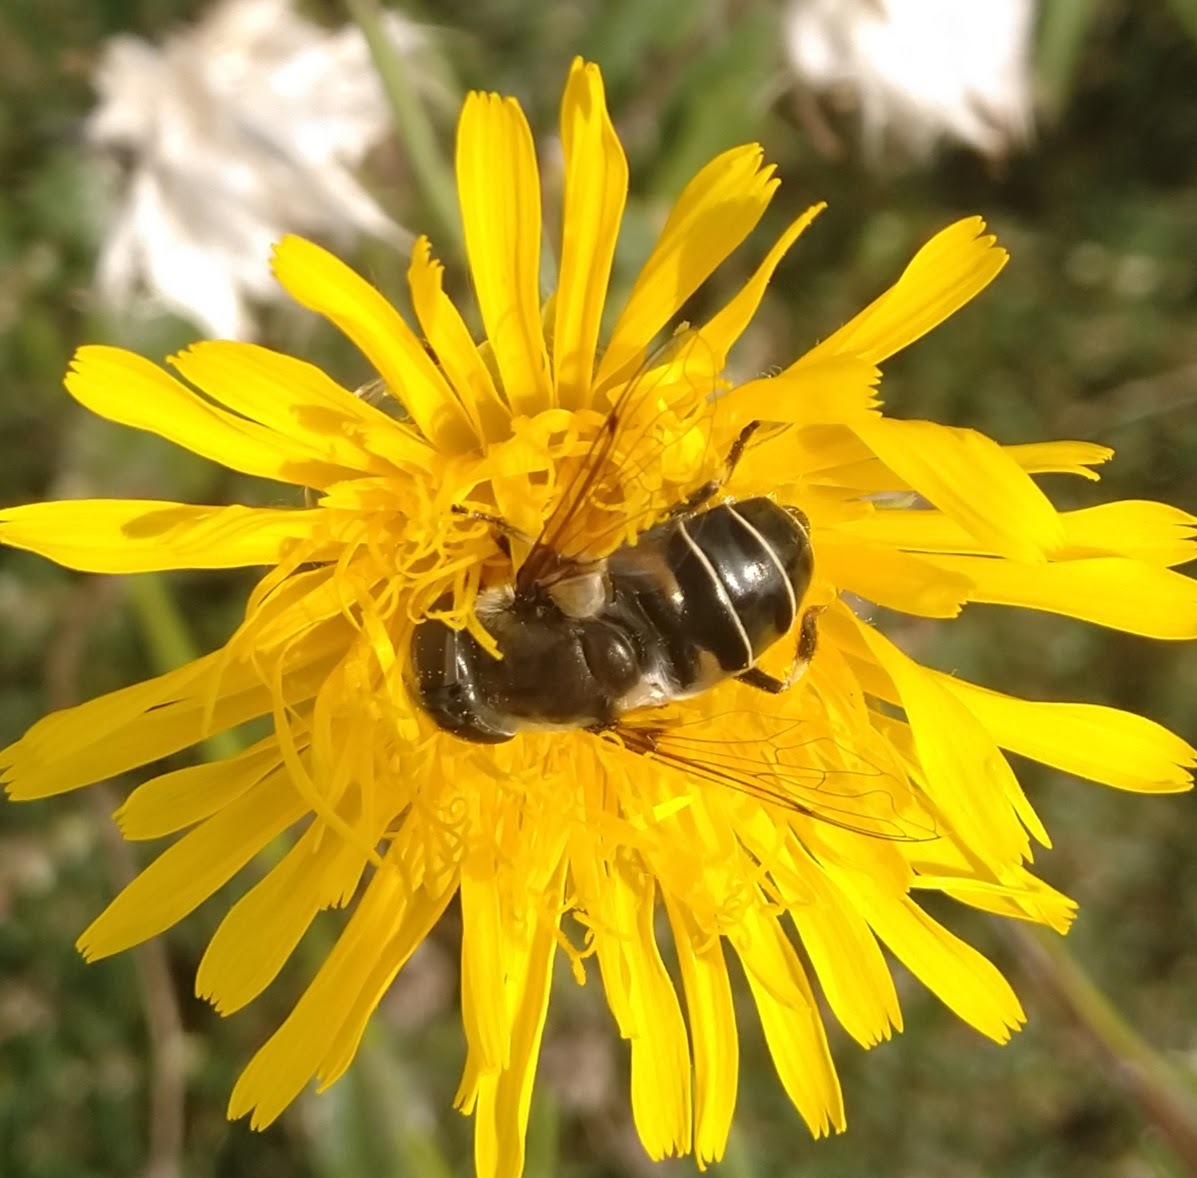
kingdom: Animalia
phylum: Arthropoda
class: Insecta
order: Diptera
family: Syrphidae
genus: Eristalis
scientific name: Eristalis dimidiata
